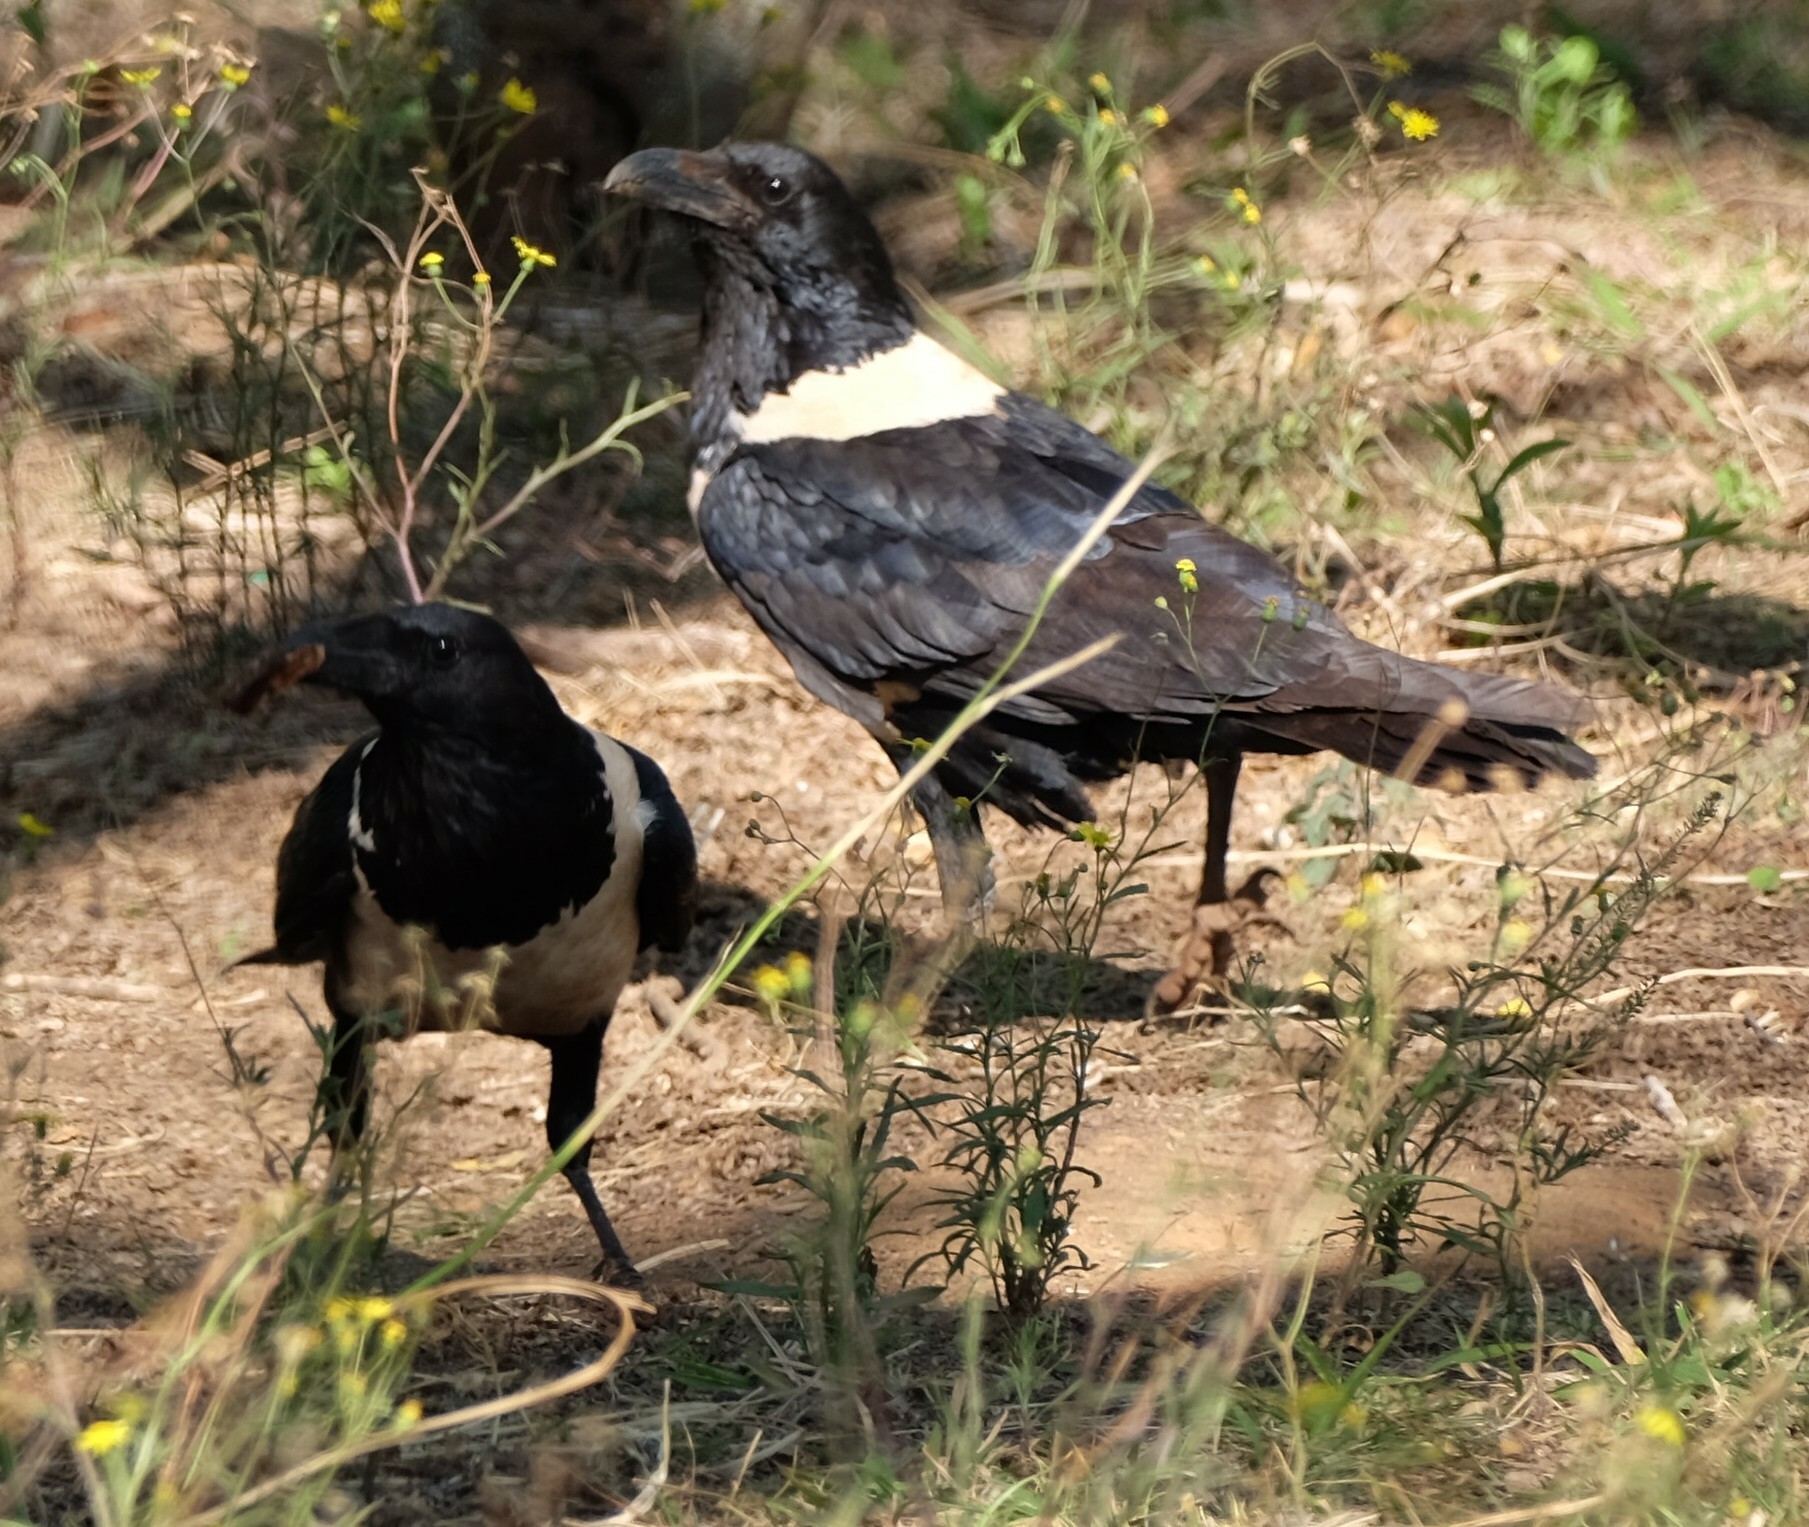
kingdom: Animalia
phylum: Chordata
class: Aves
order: Passeriformes
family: Corvidae
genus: Corvus
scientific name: Corvus albus
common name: Pied crow
